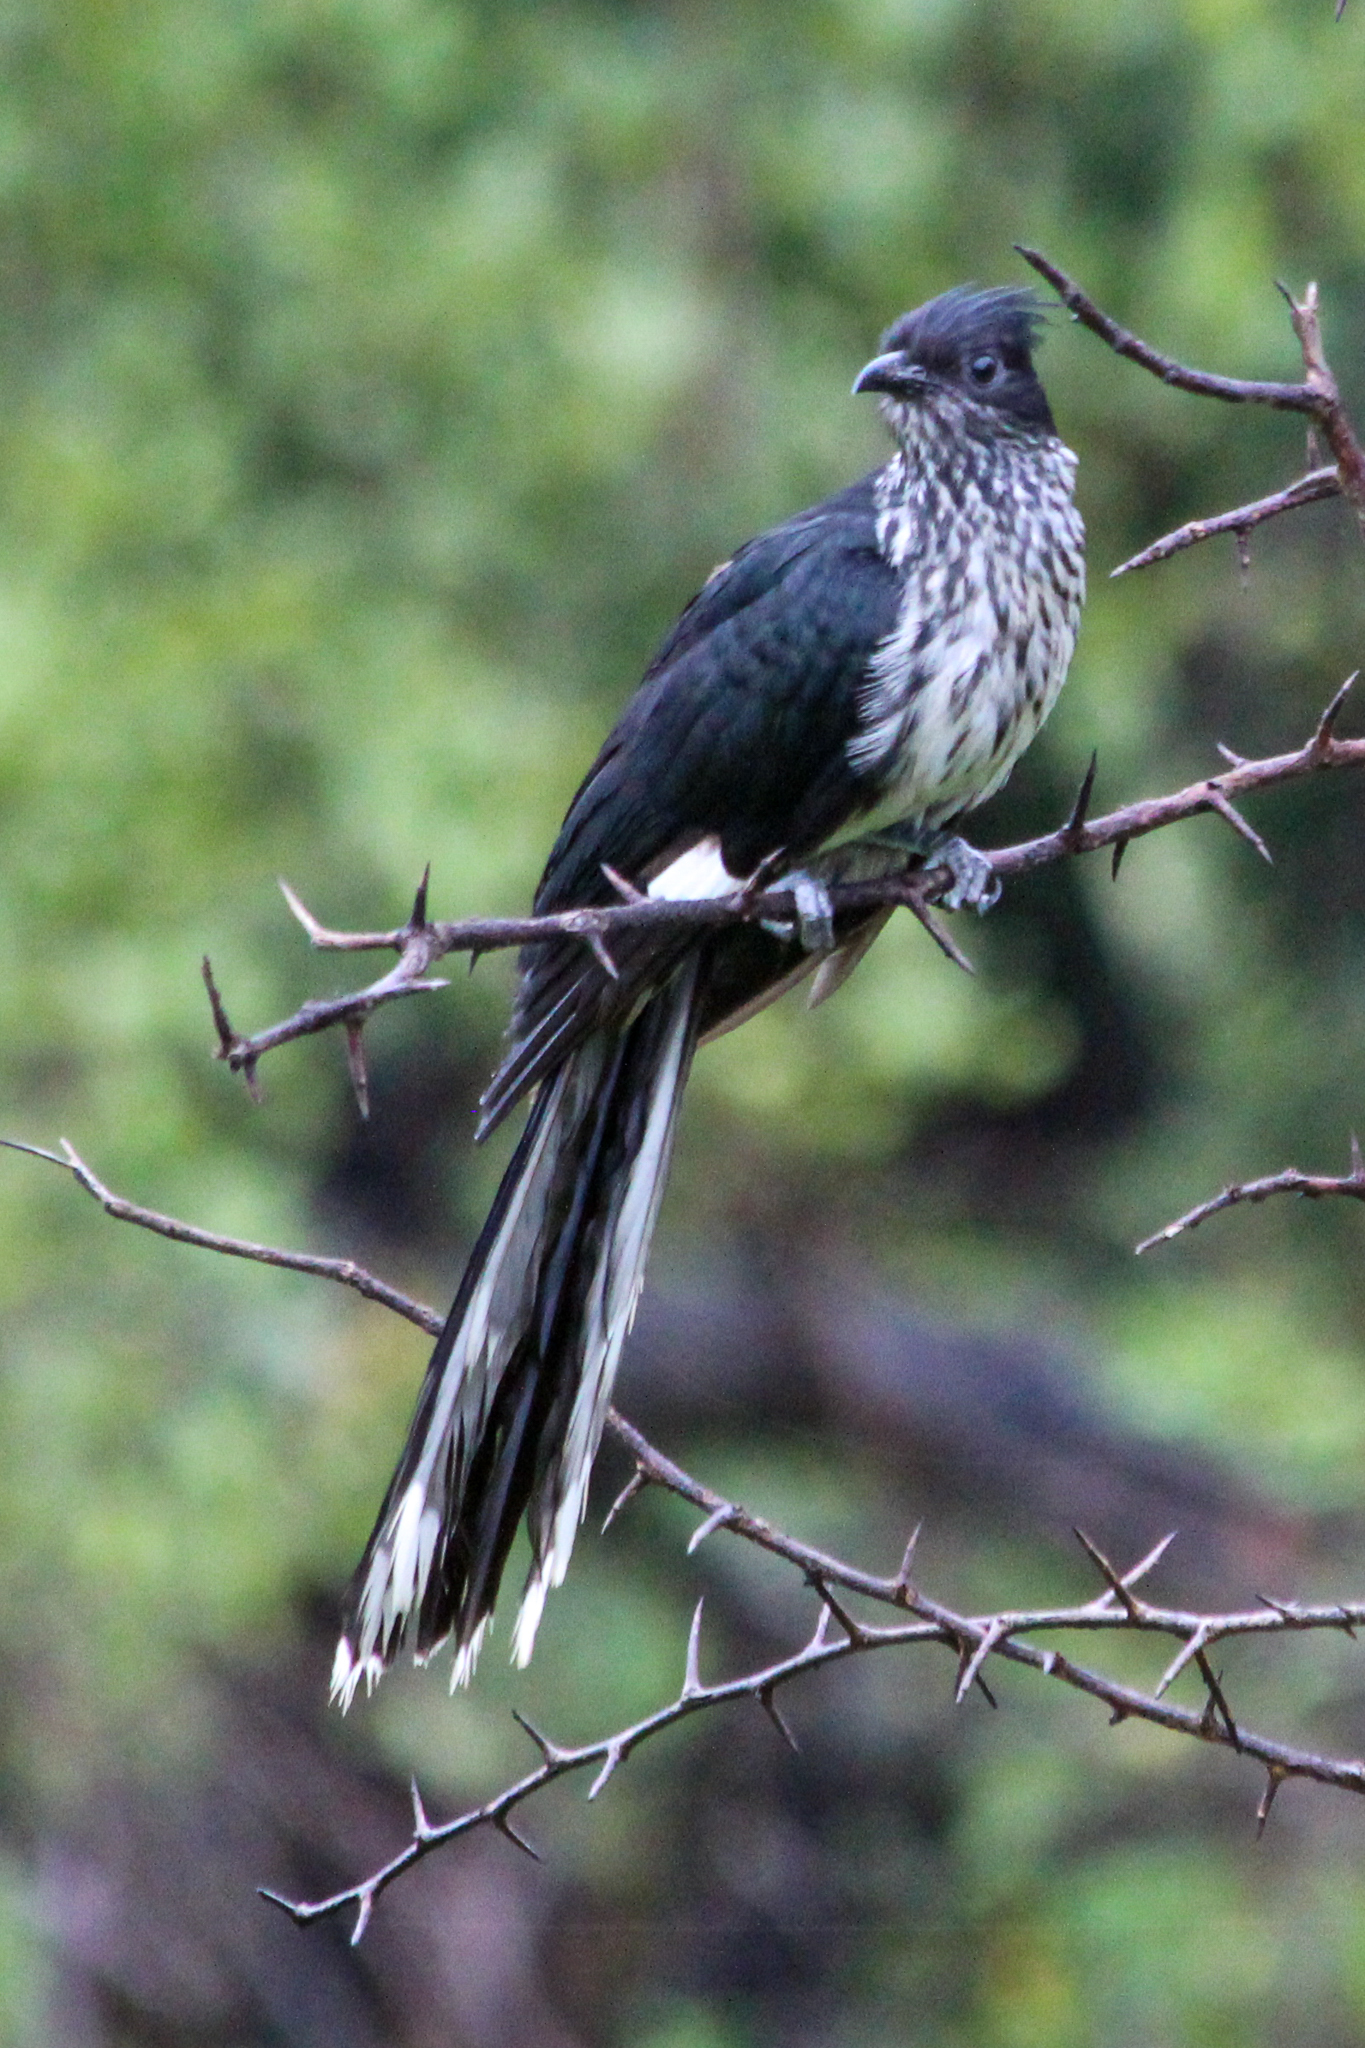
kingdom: Animalia
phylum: Chordata
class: Aves
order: Cuculiformes
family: Cuculidae
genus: Clamator
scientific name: Clamator levaillantii
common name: Levaillant's cuckoo
